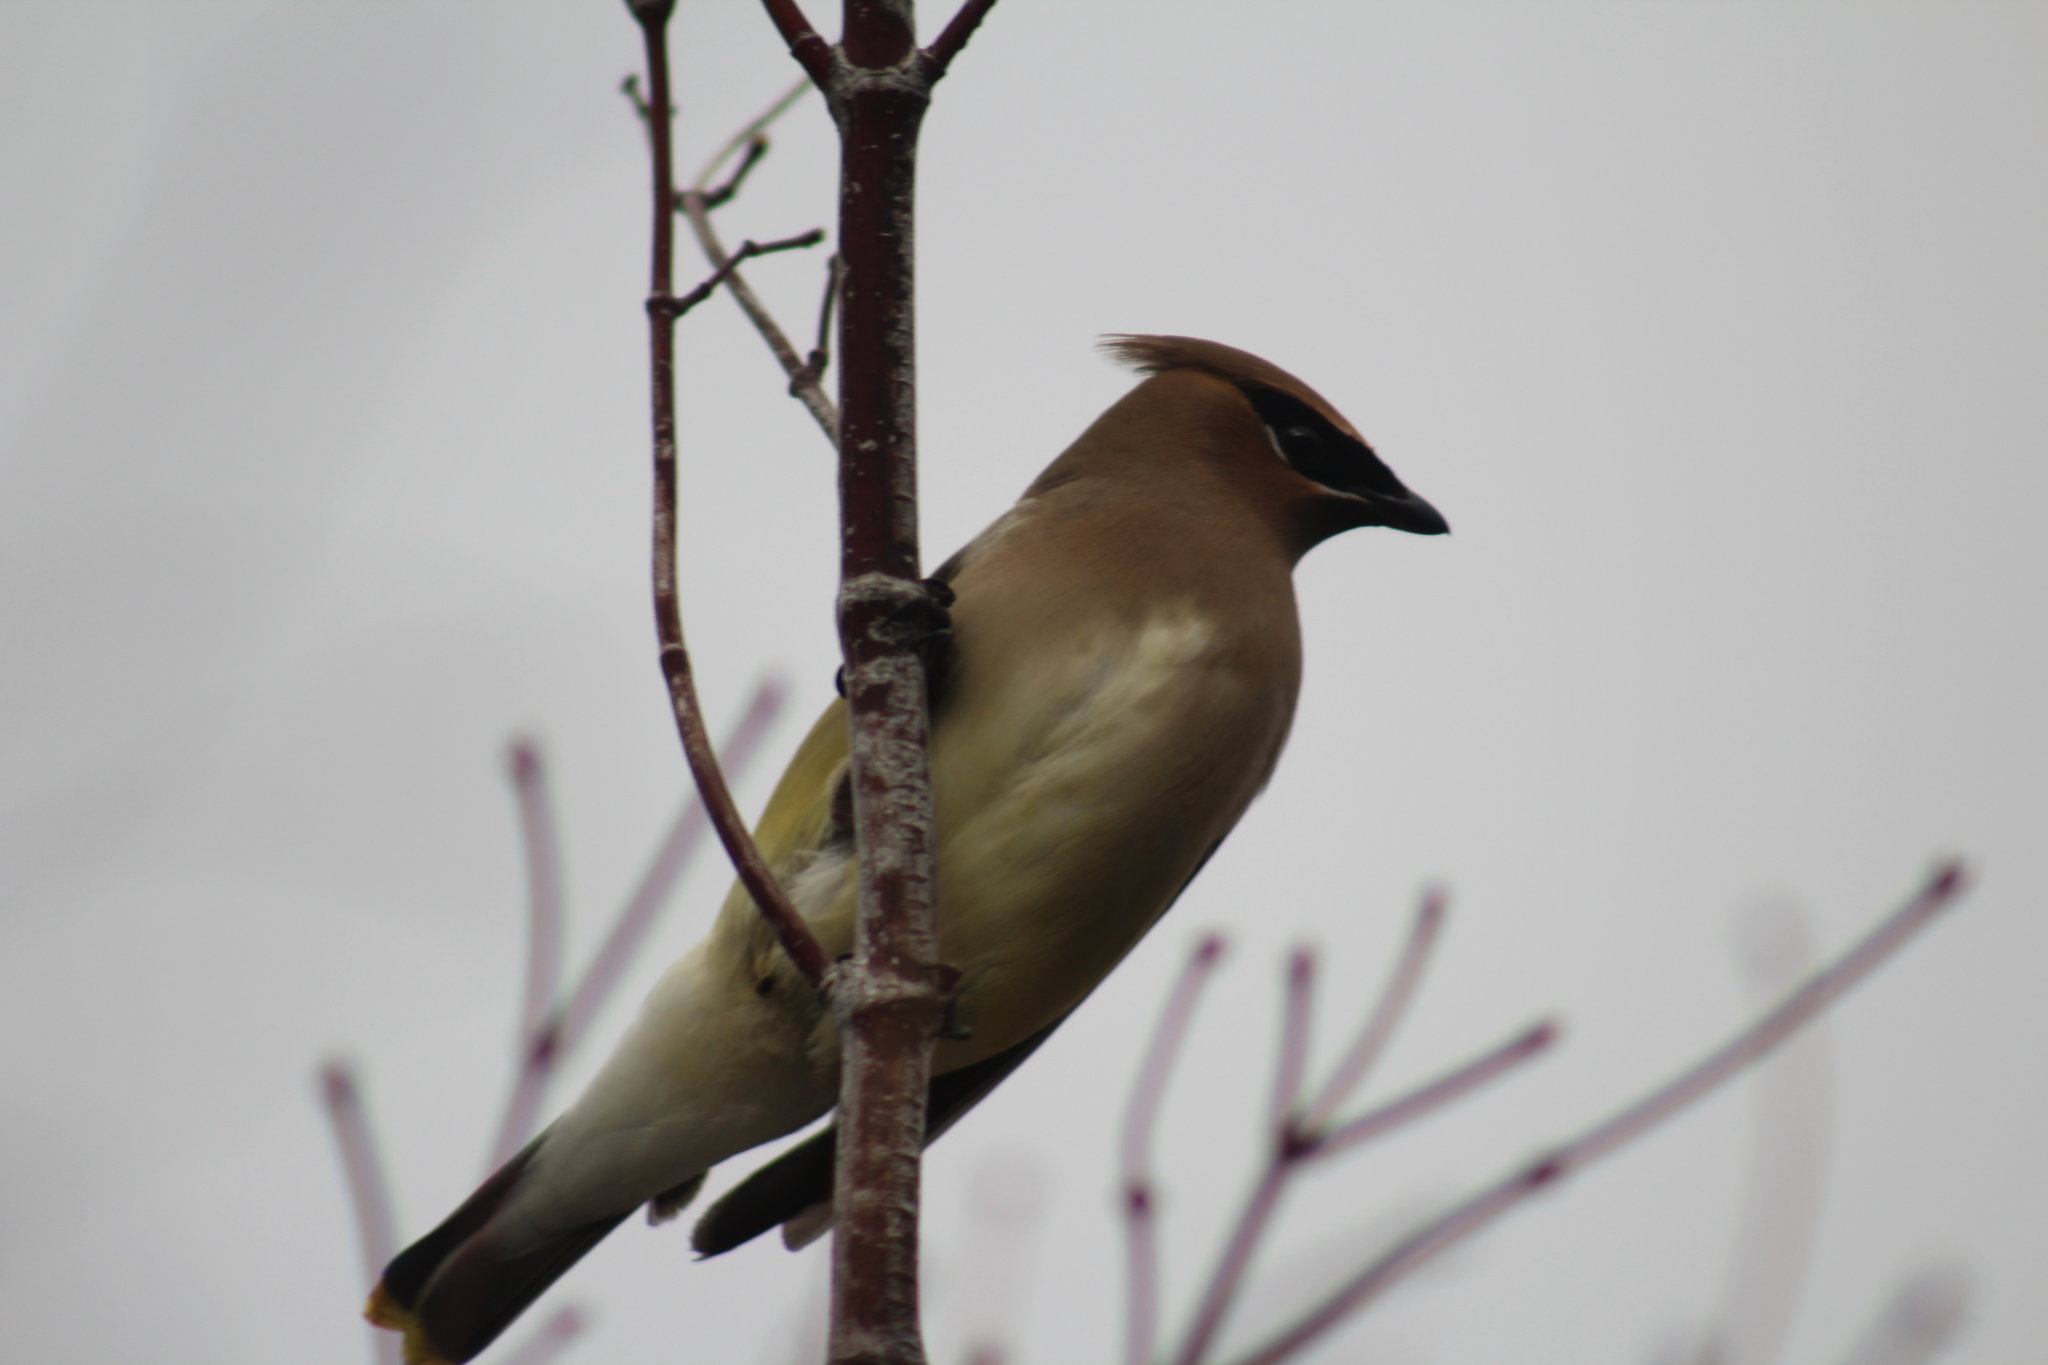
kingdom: Animalia
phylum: Chordata
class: Aves
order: Passeriformes
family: Bombycillidae
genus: Bombycilla
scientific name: Bombycilla cedrorum
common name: Cedar waxwing
